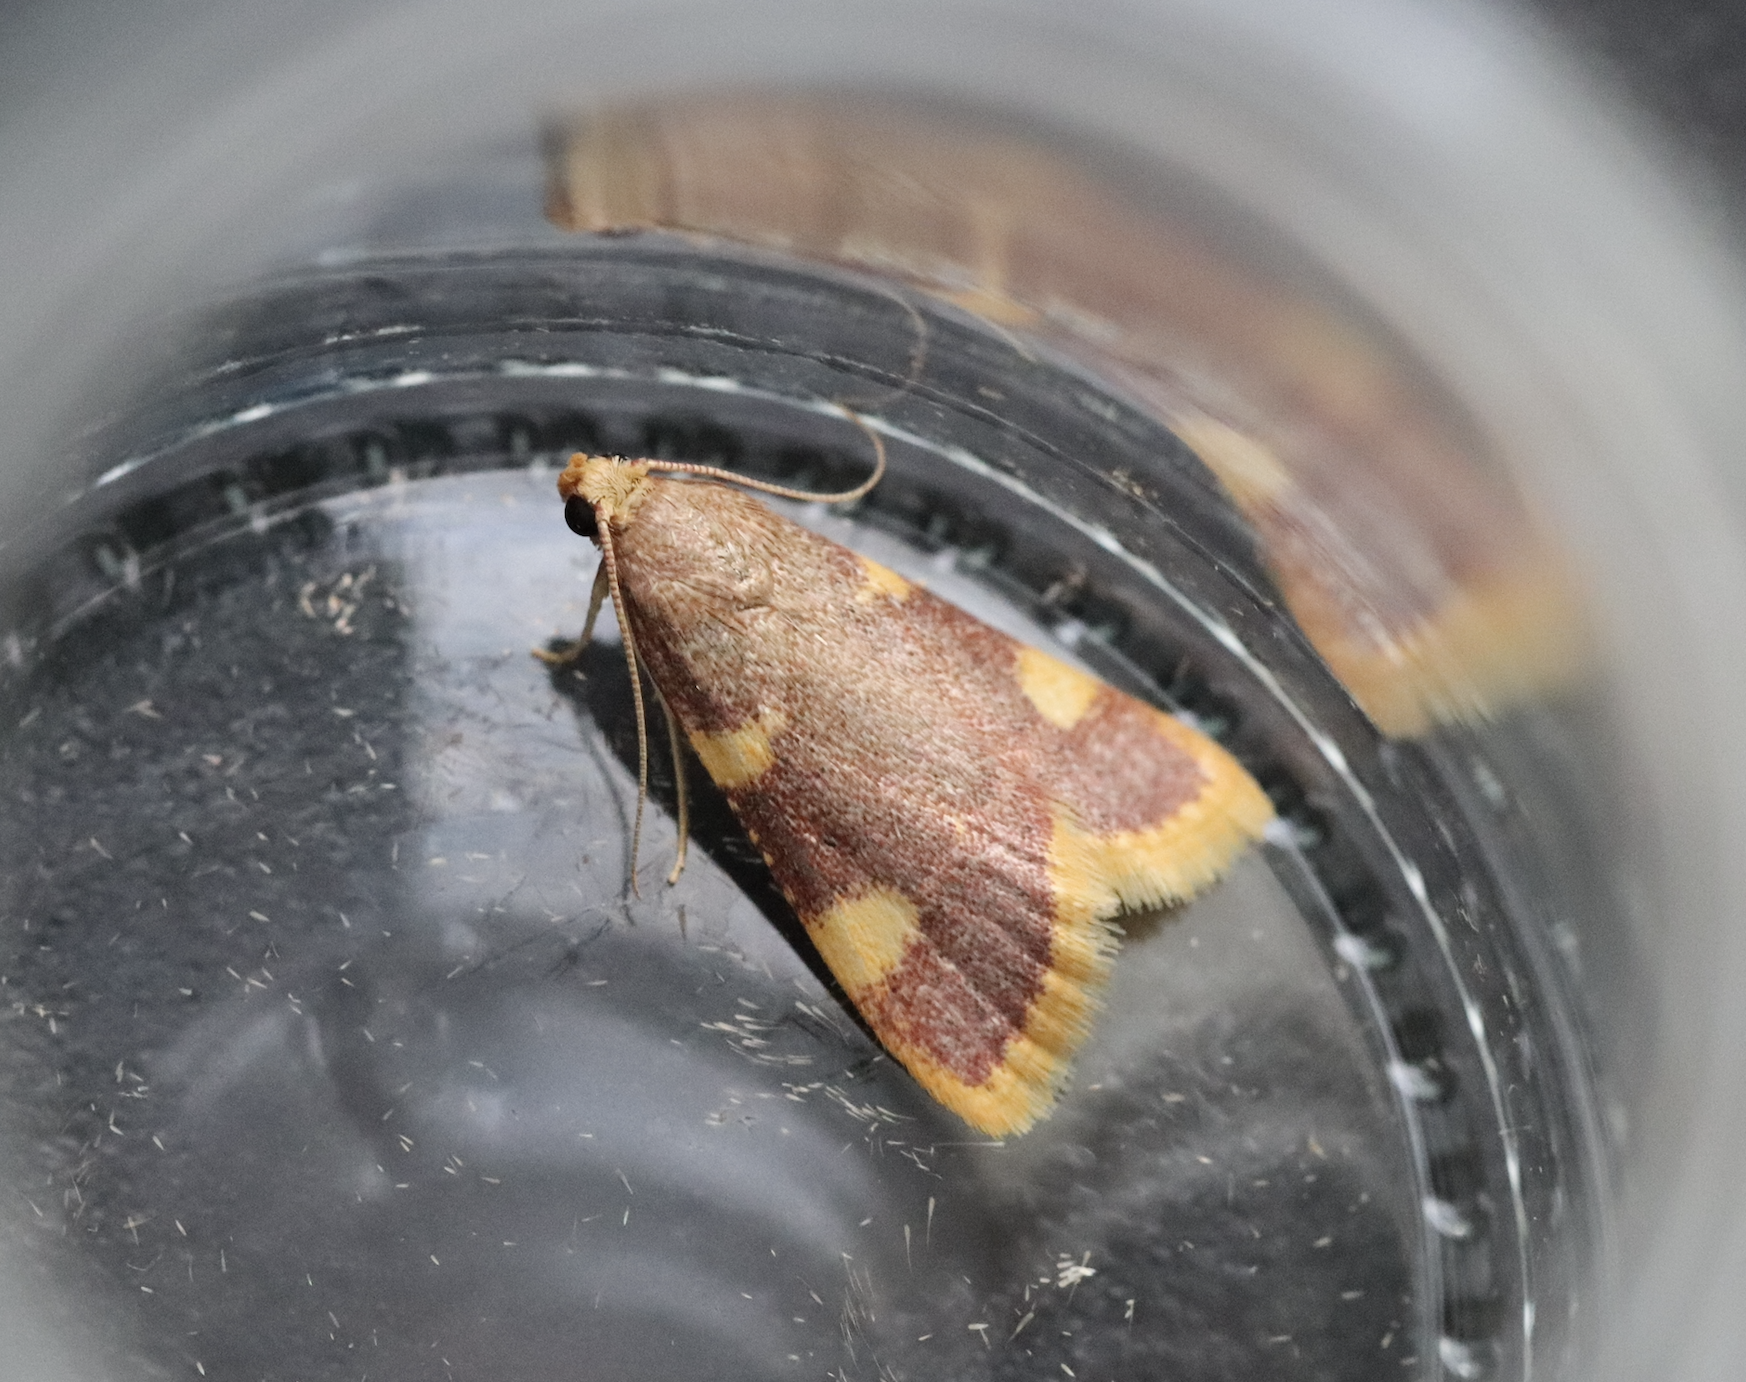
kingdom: Animalia
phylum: Arthropoda
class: Insecta
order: Lepidoptera
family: Pyralidae
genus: Hypsopygia
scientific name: Hypsopygia costalis
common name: Gold triangle
